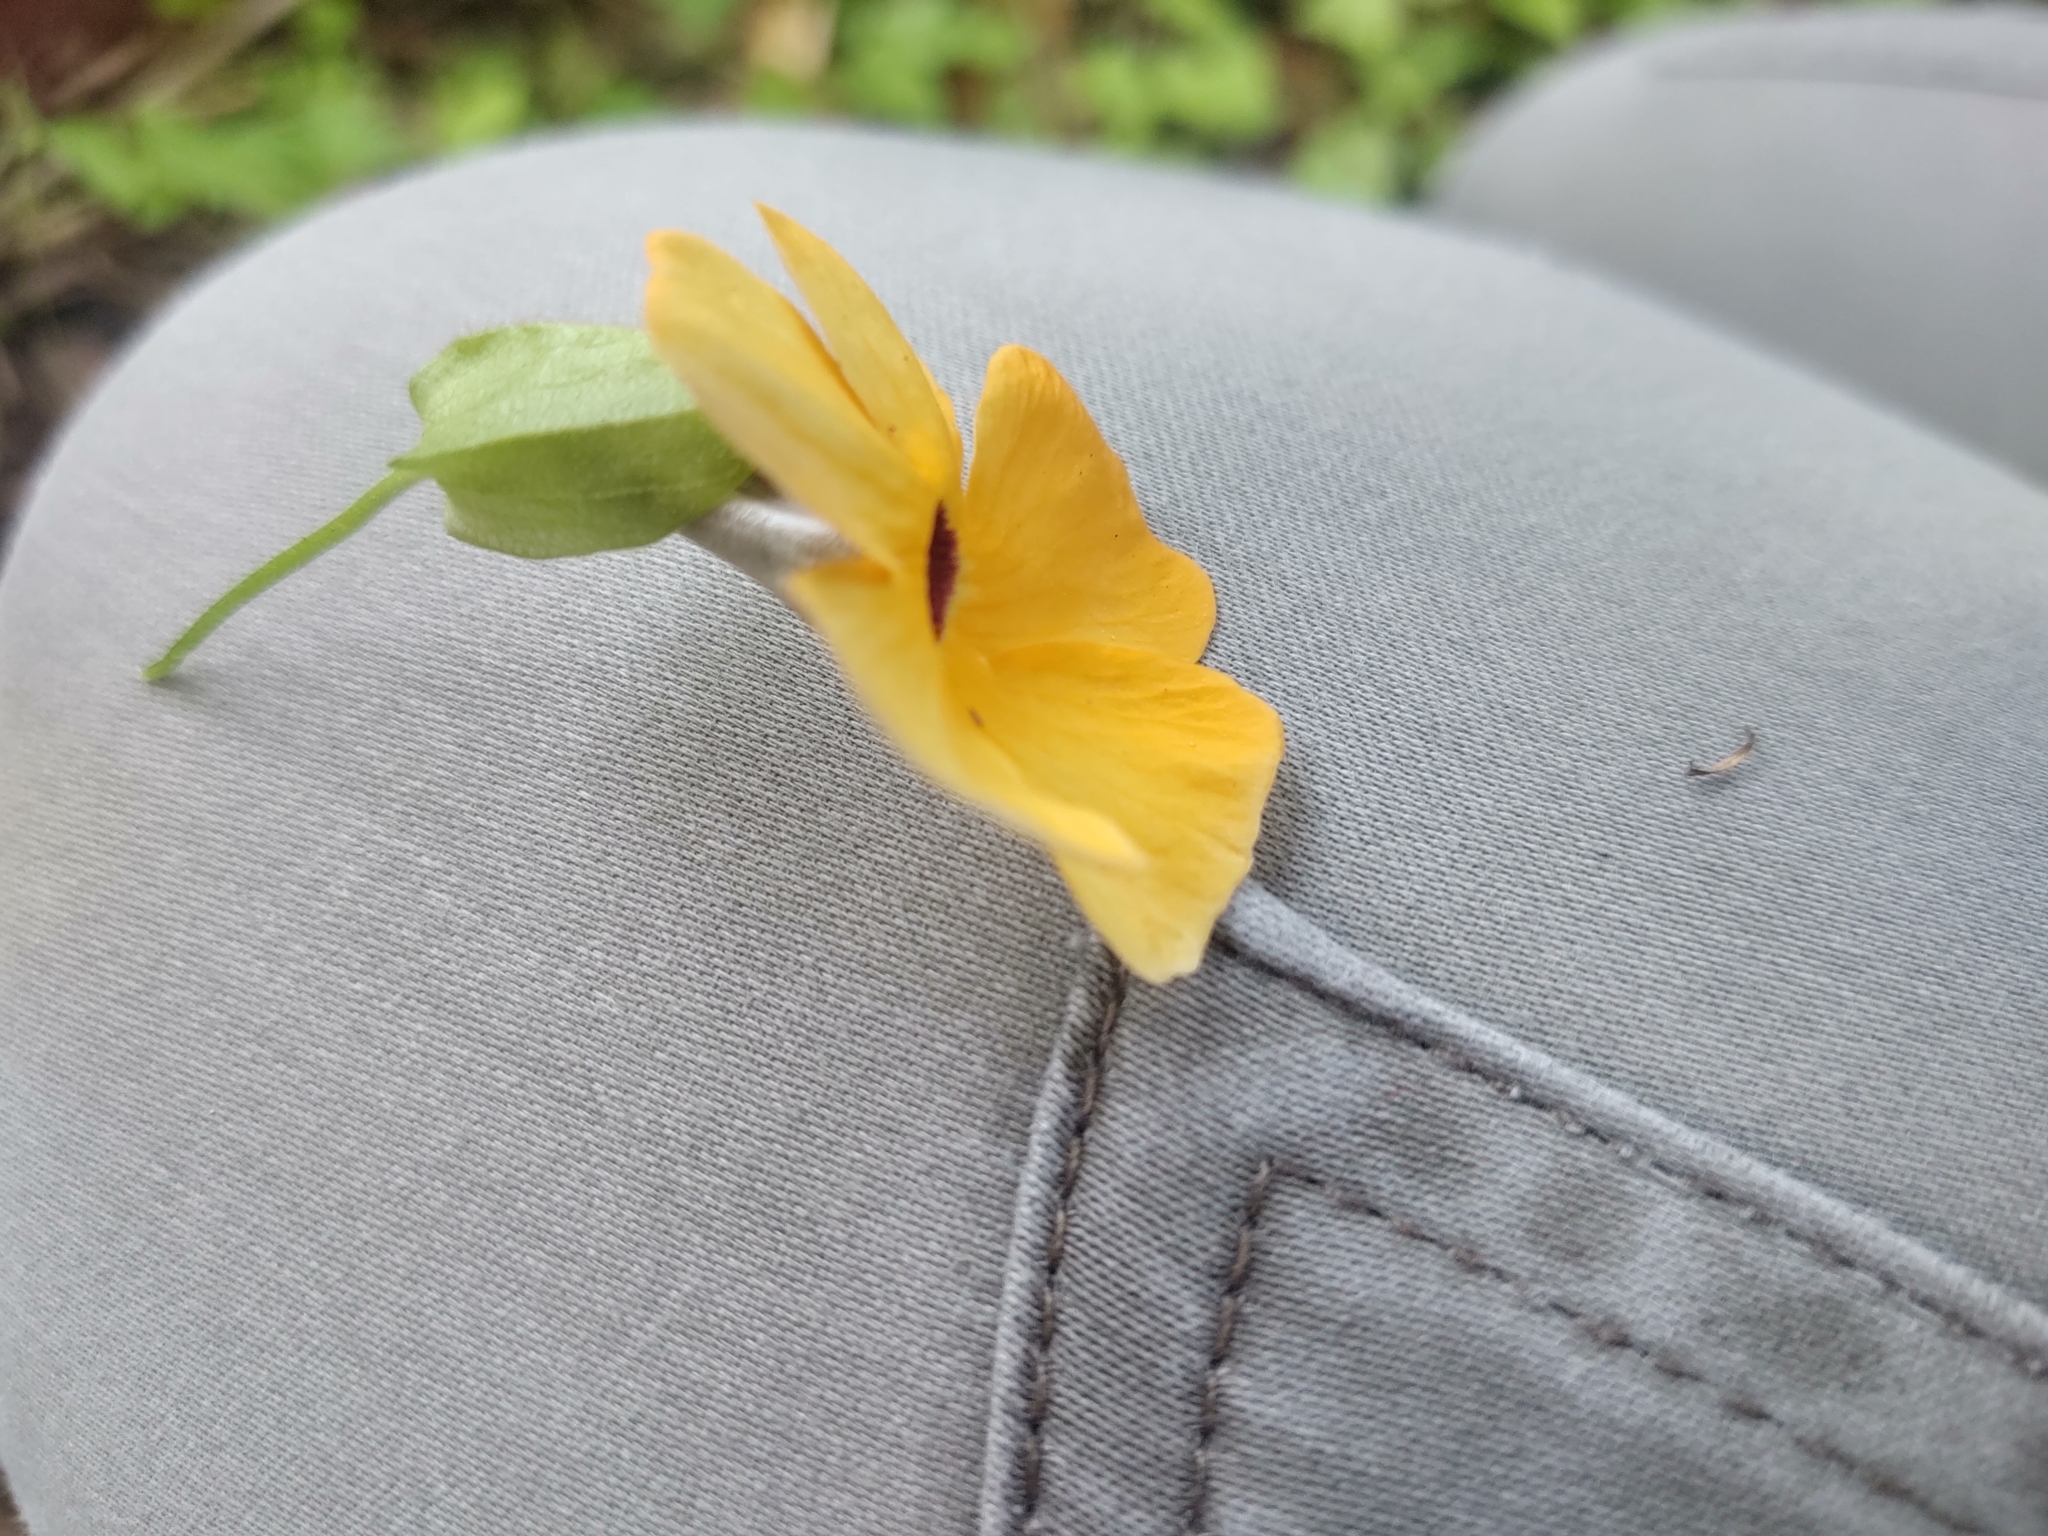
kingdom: Plantae
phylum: Tracheophyta
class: Magnoliopsida
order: Lamiales
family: Acanthaceae
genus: Thunbergia
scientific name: Thunbergia alata
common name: Blackeyed susan vine
